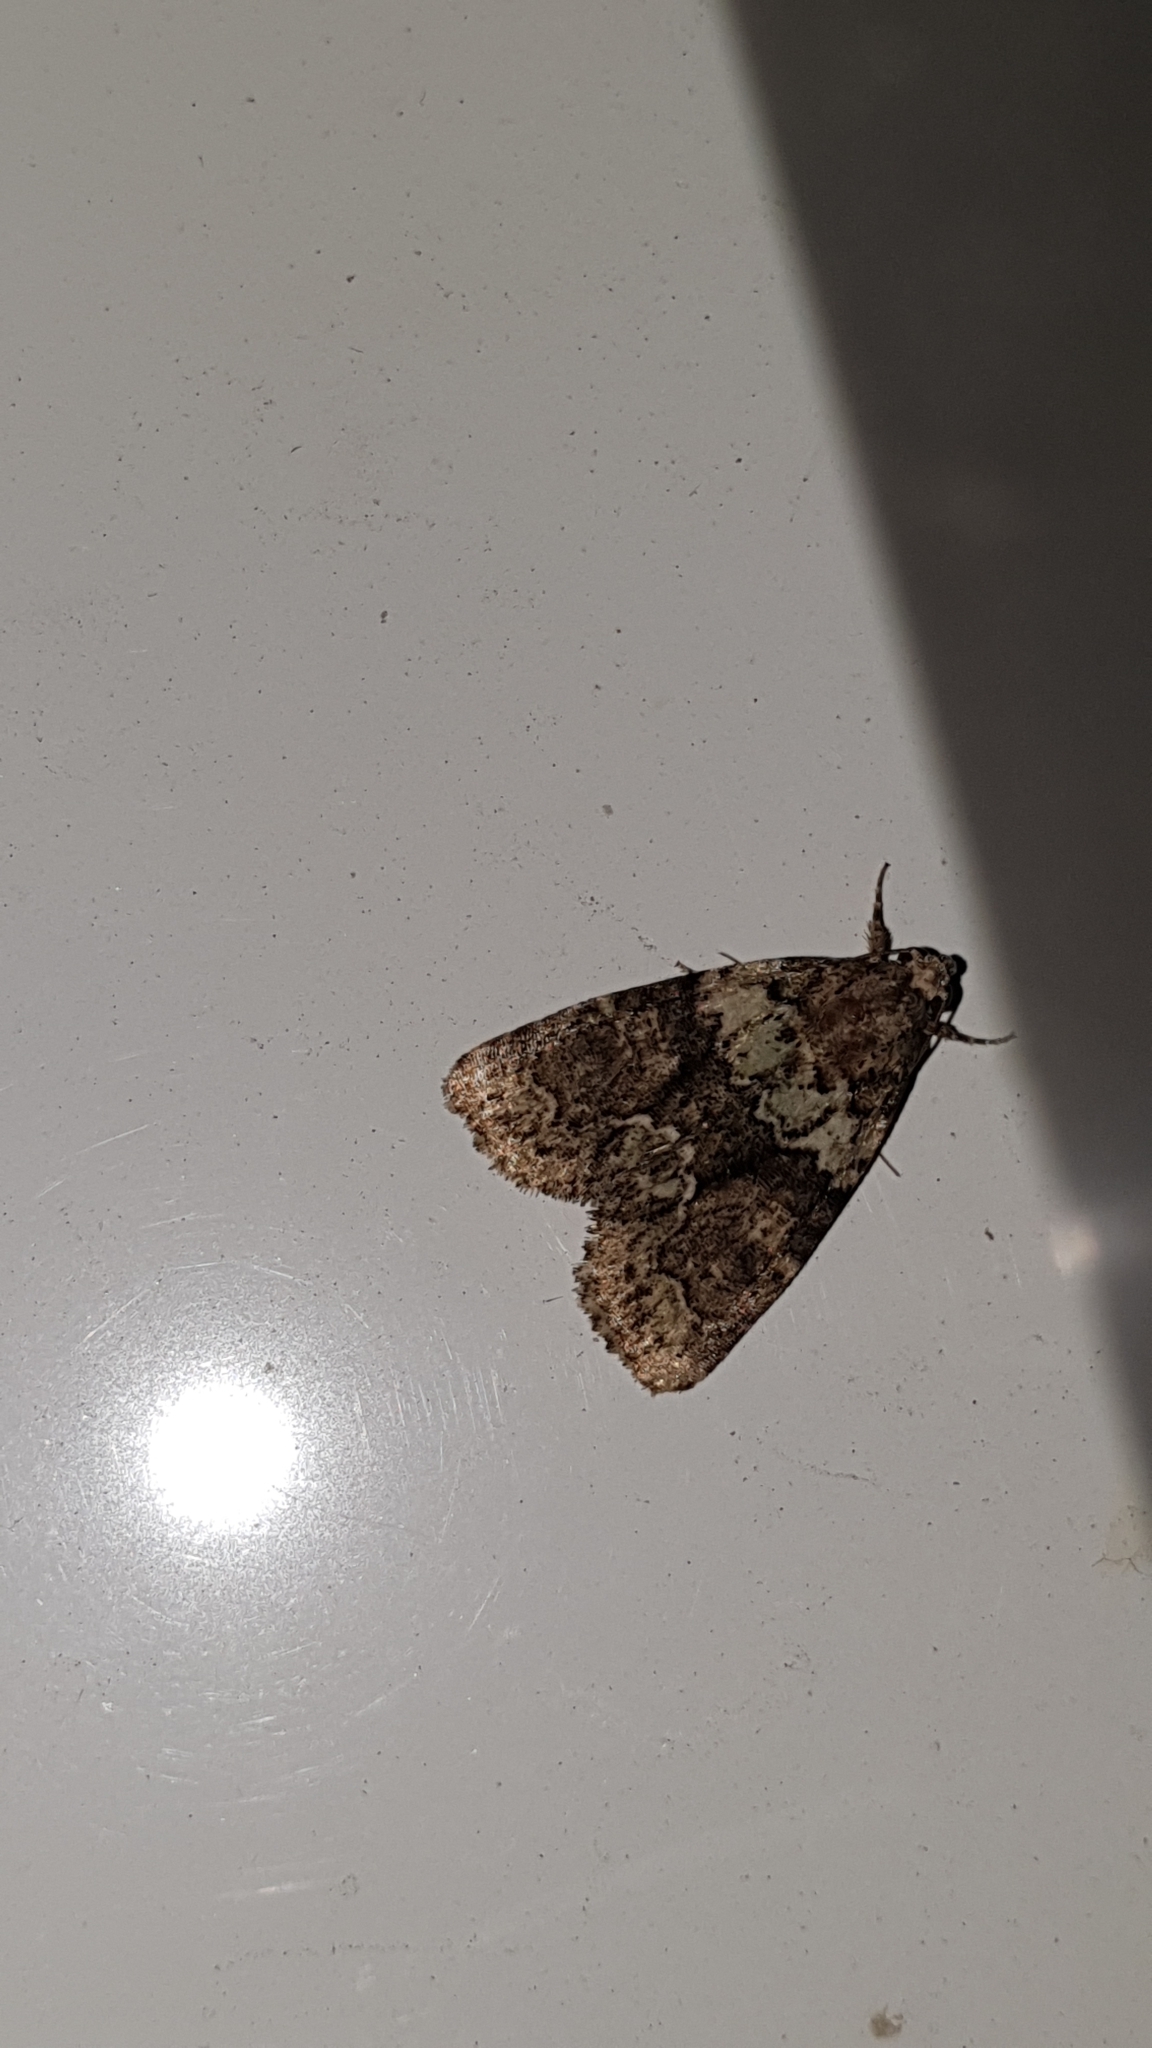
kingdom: Animalia
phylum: Arthropoda
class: Insecta
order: Lepidoptera
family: Noctuidae
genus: Cryphia
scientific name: Cryphia algae
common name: Tree-lichen beauty
